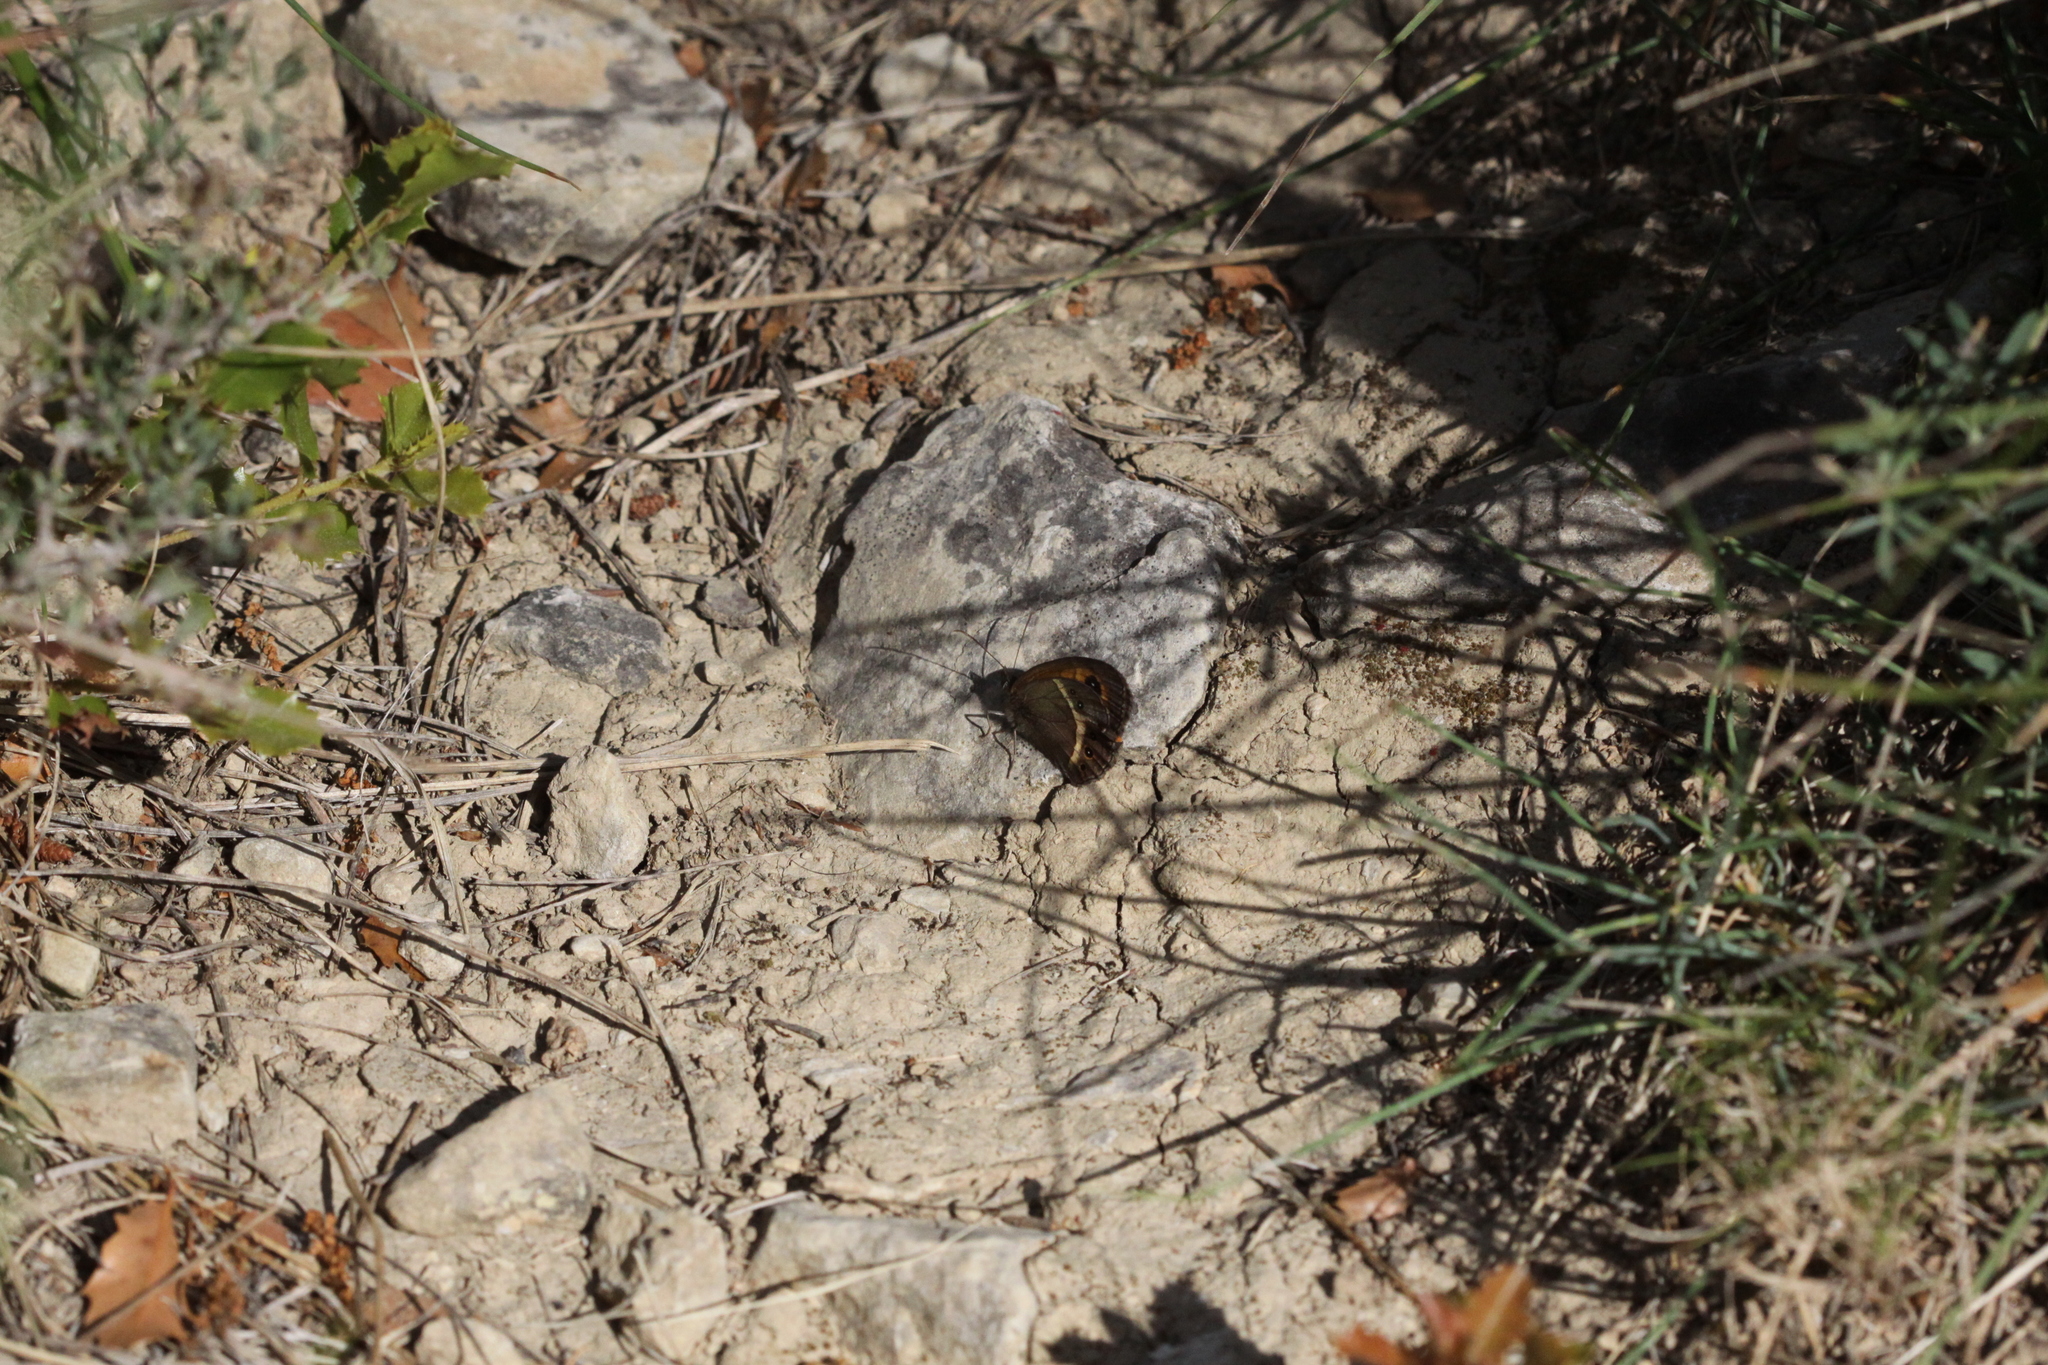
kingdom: Animalia
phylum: Arthropoda
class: Insecta
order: Lepidoptera
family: Nymphalidae
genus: Pyronia
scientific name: Pyronia bathseba
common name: Spanish gatekeeper
